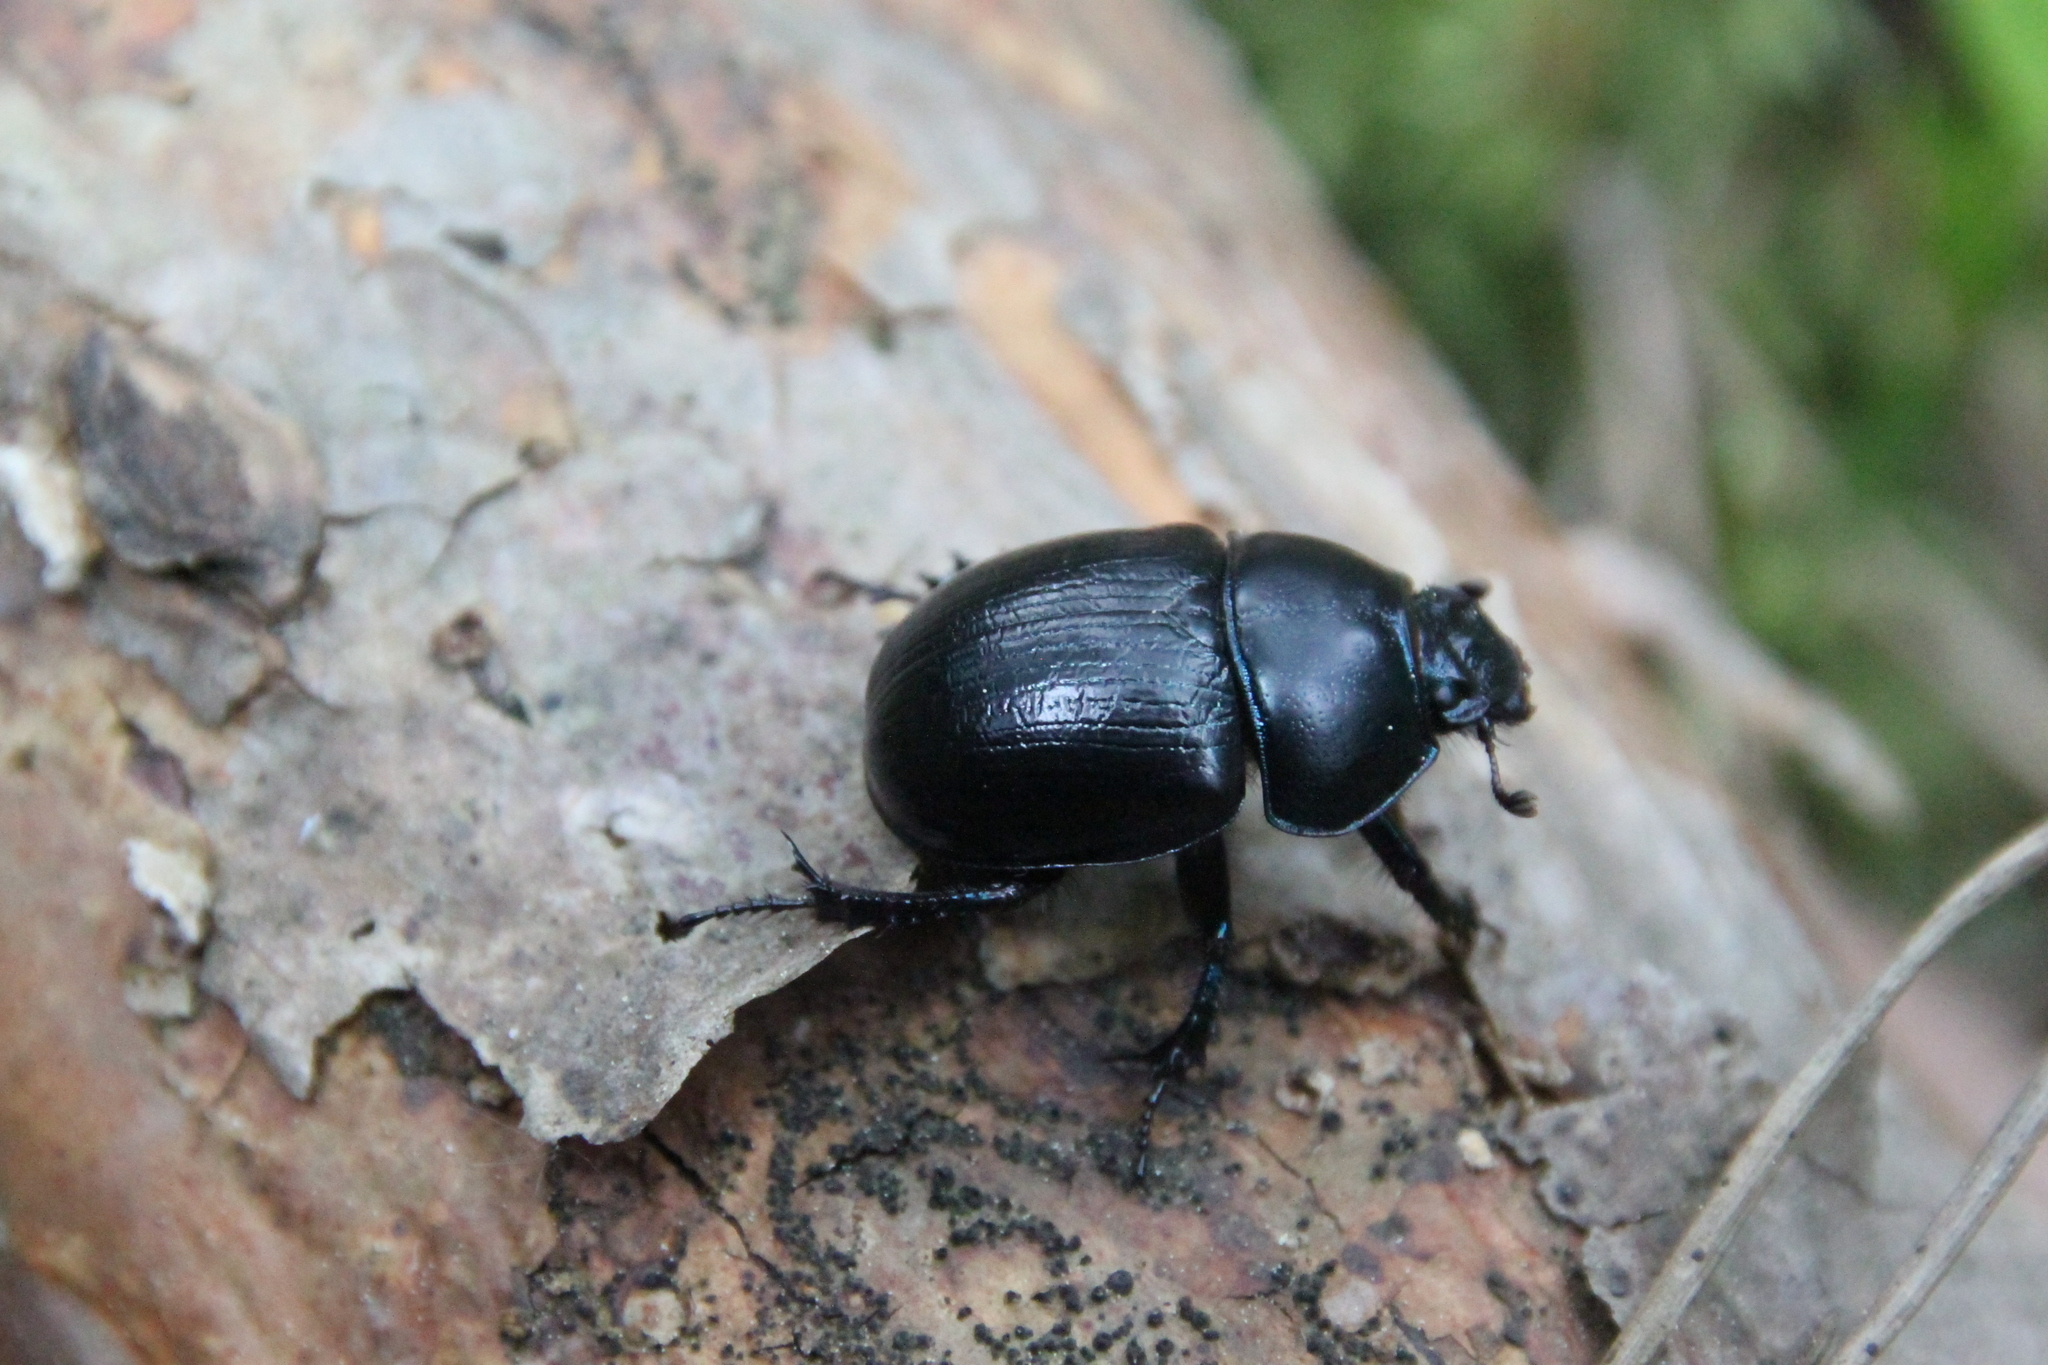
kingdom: Animalia
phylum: Arthropoda
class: Insecta
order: Coleoptera
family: Geotrupidae
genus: Anoplotrupes
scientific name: Anoplotrupes stercorosus
